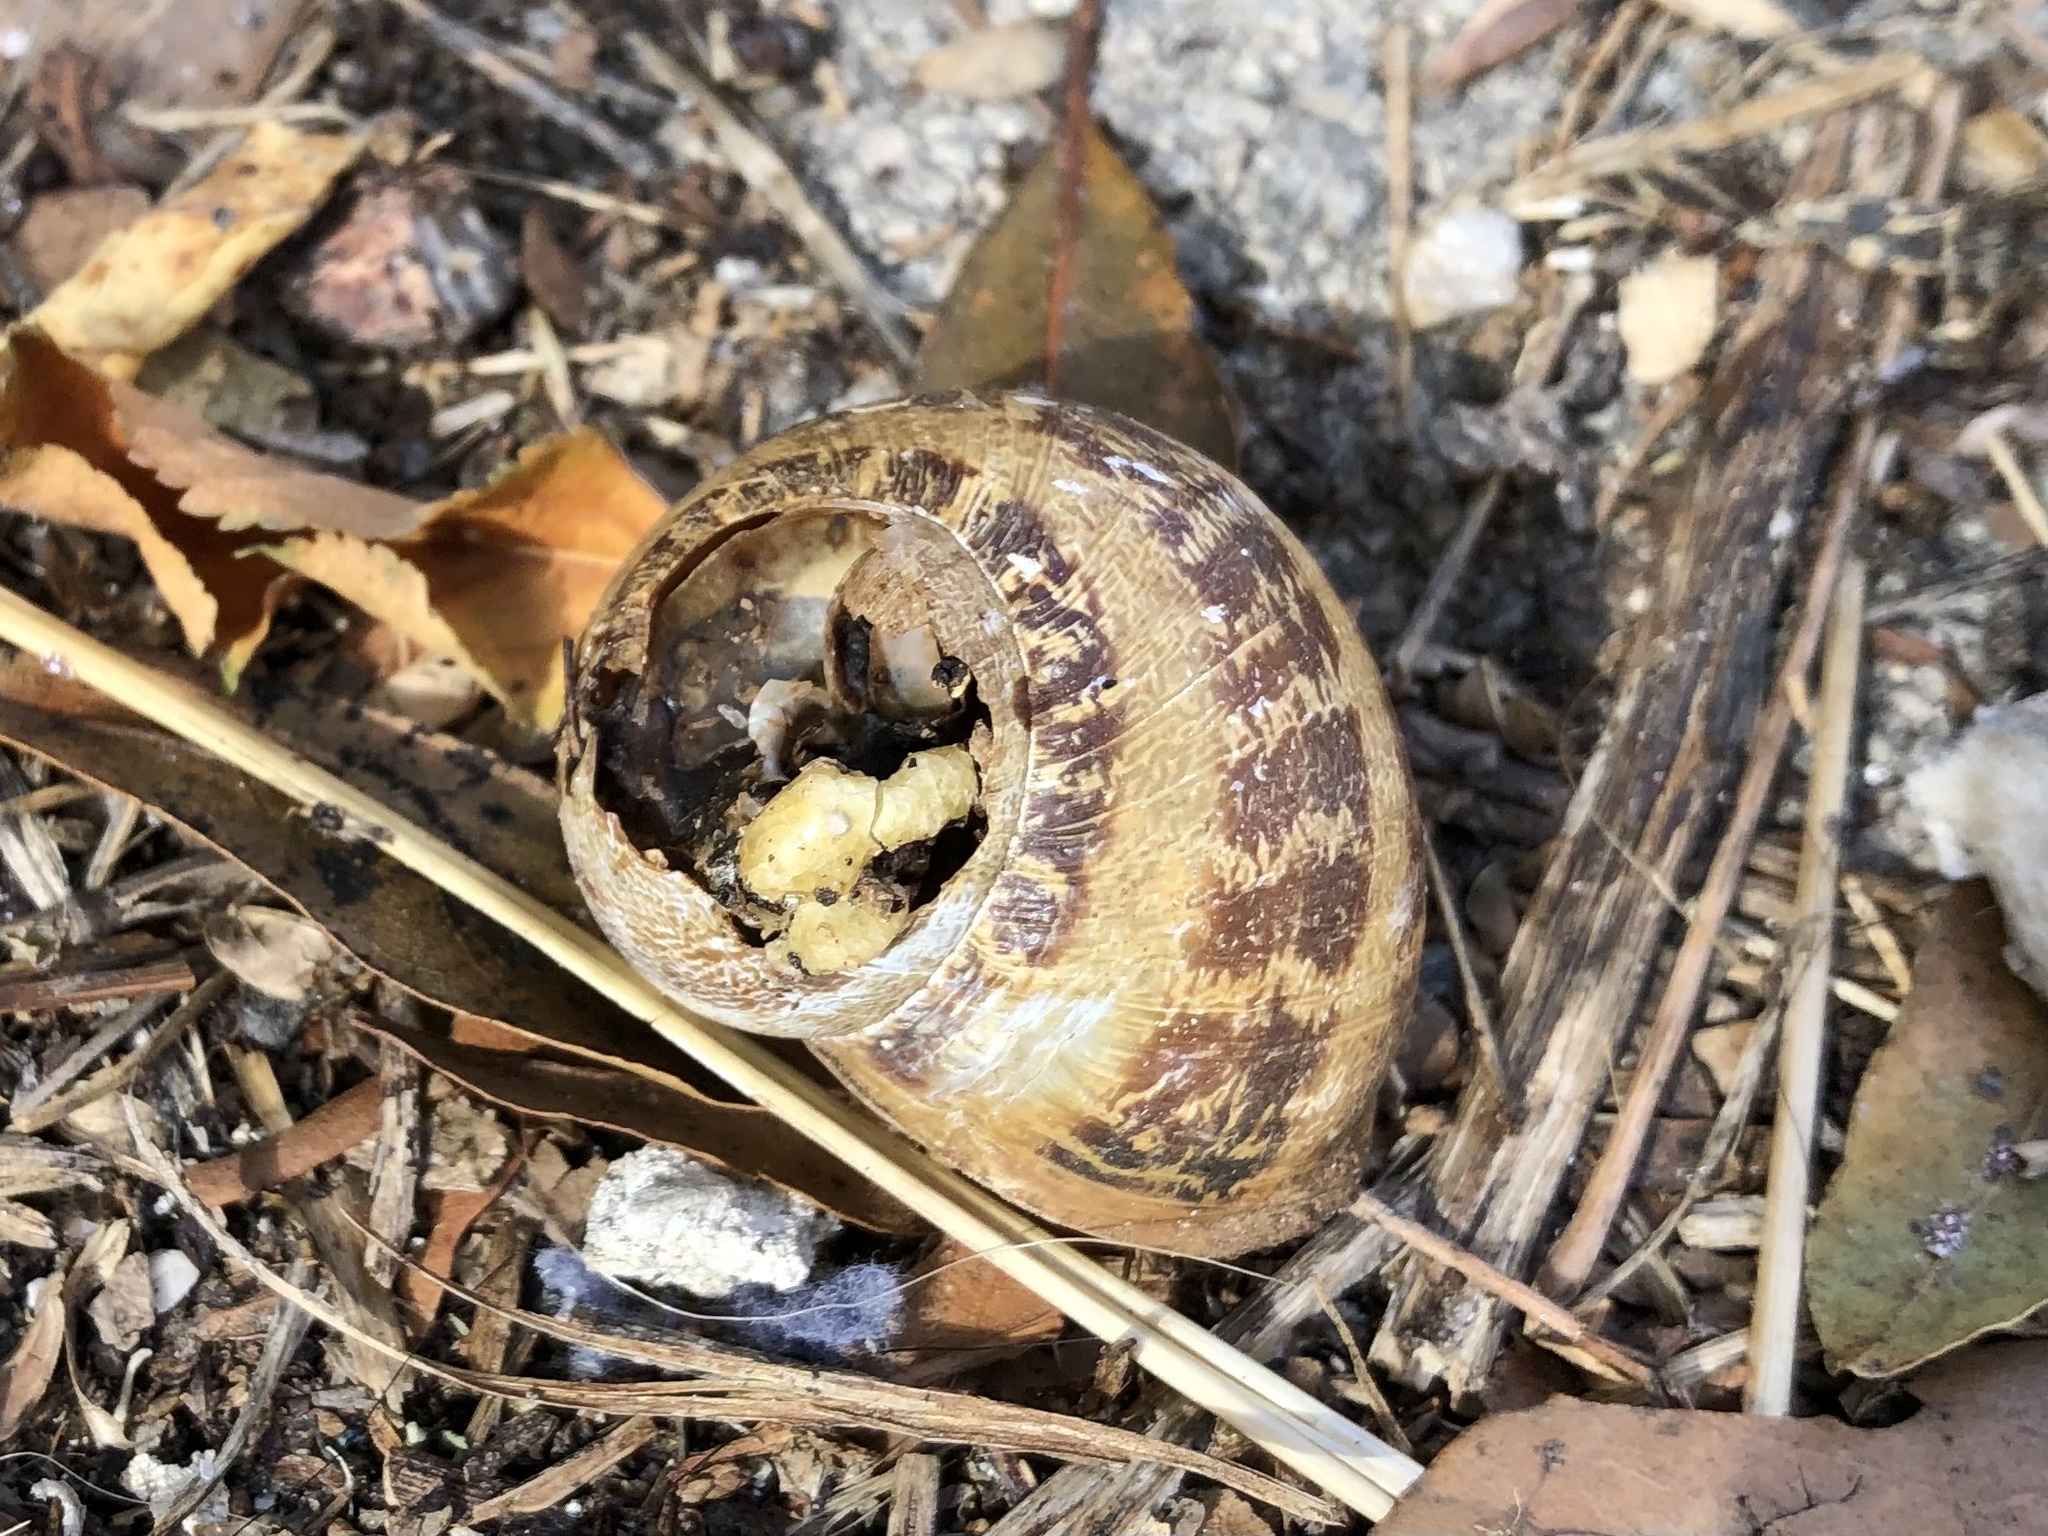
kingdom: Animalia
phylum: Mollusca
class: Gastropoda
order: Stylommatophora
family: Helicidae
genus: Cornu
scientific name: Cornu aspersum
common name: Brown garden snail
